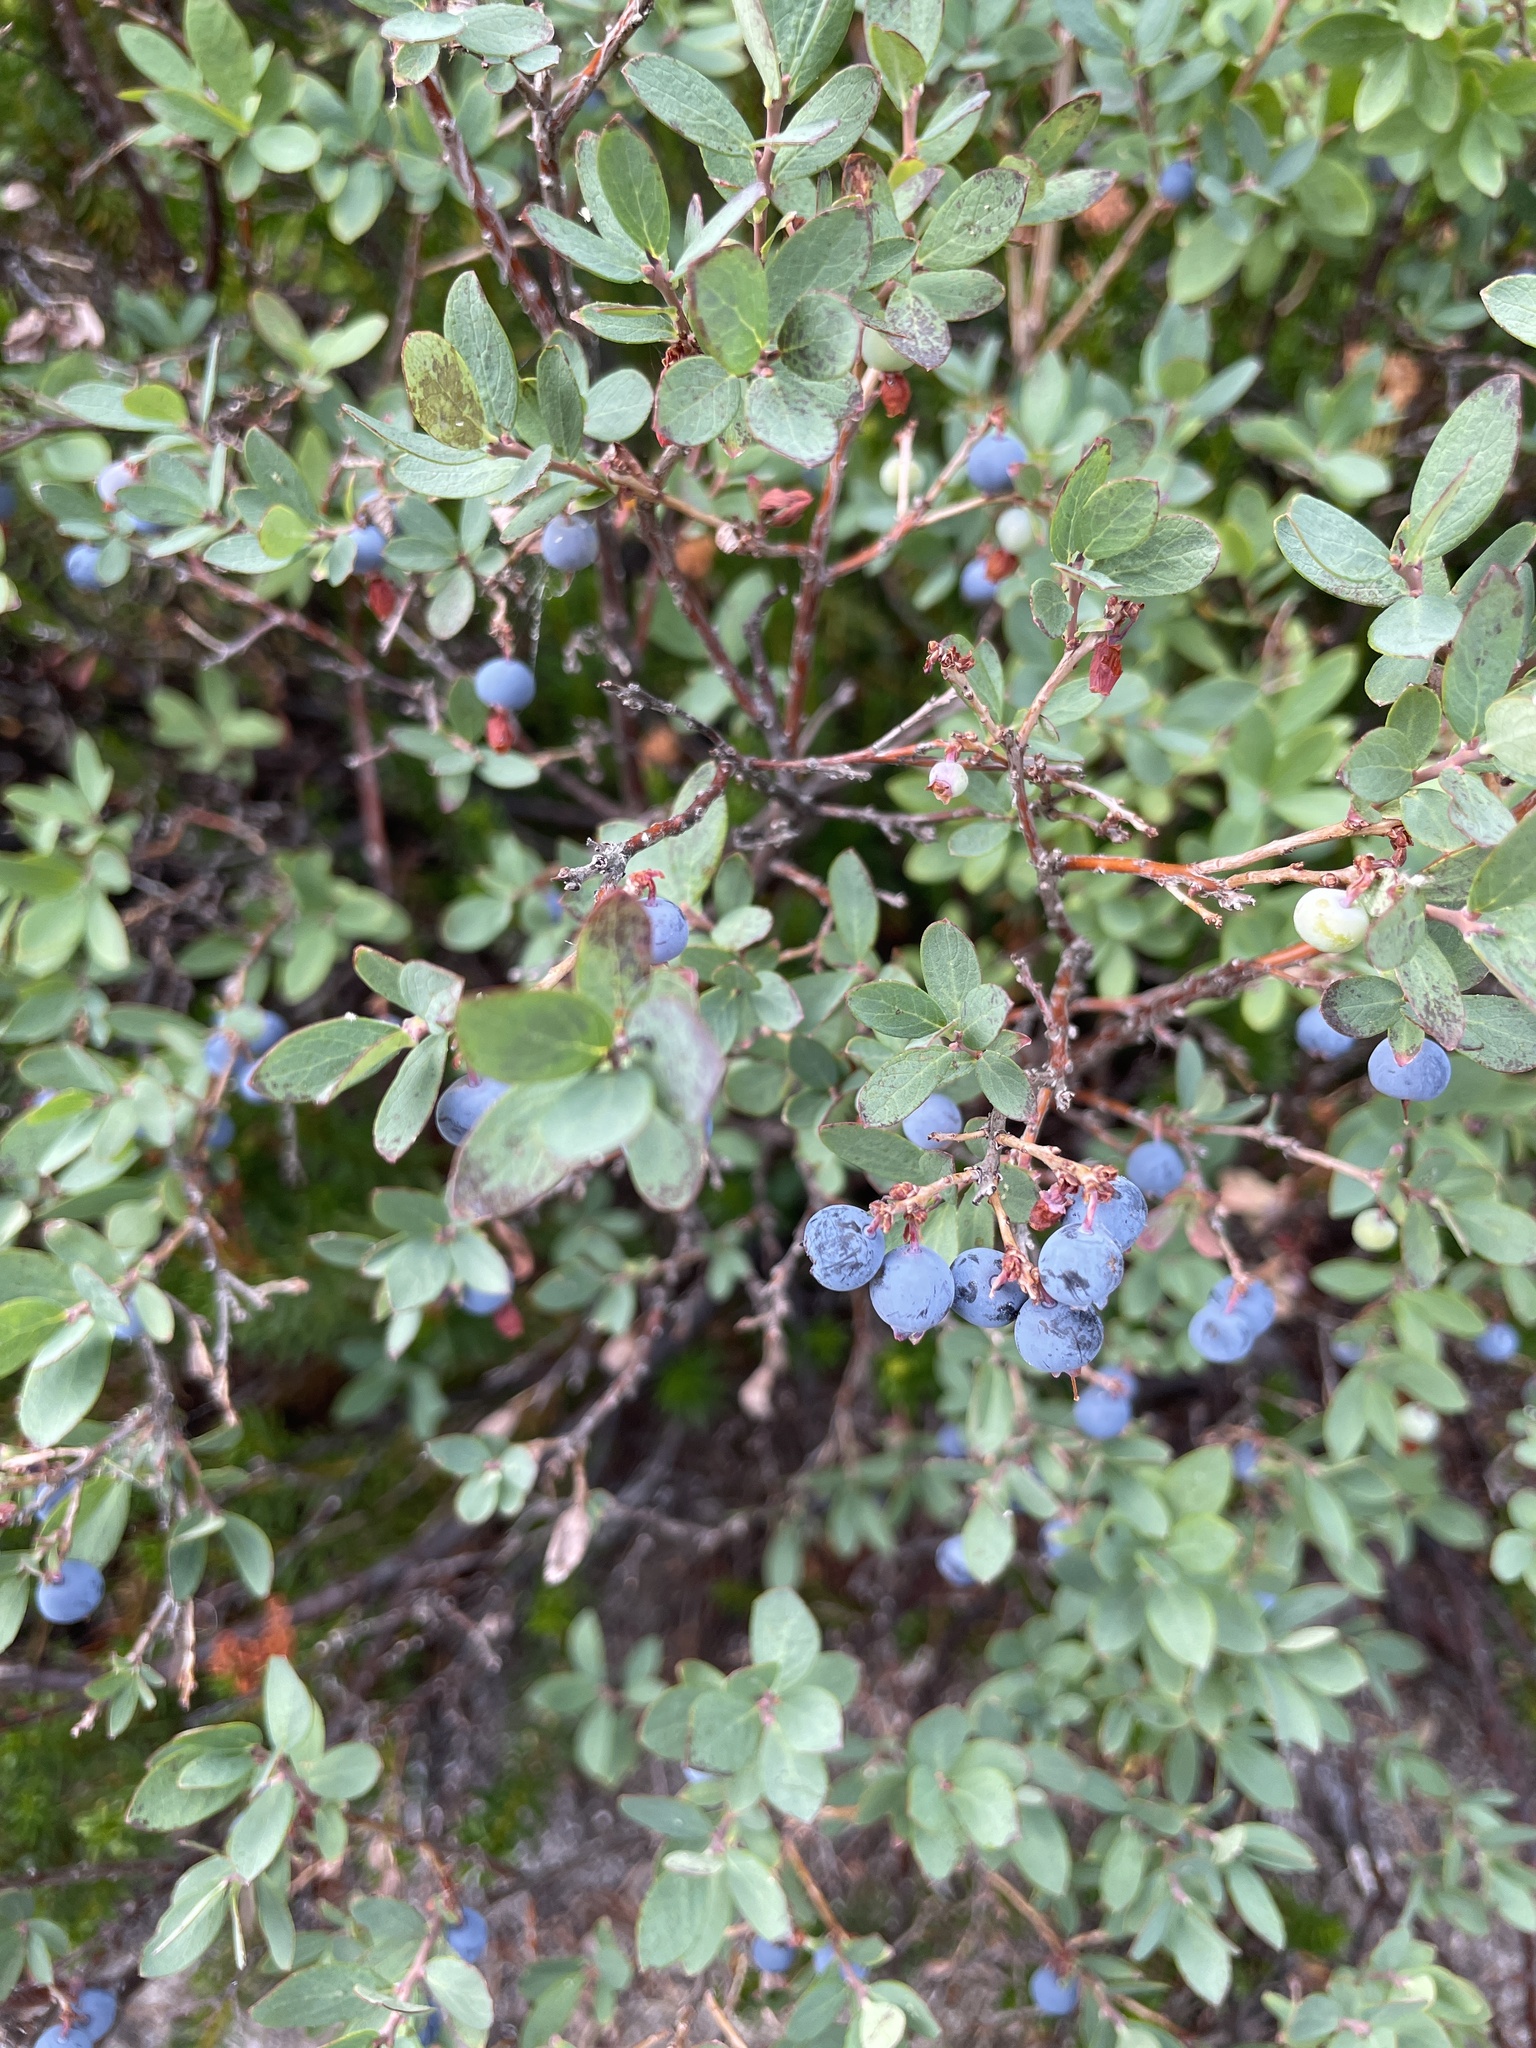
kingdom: Plantae
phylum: Tracheophyta
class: Magnoliopsida
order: Ericales
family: Ericaceae
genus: Vaccinium
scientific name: Vaccinium uliginosum
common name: Bog bilberry
